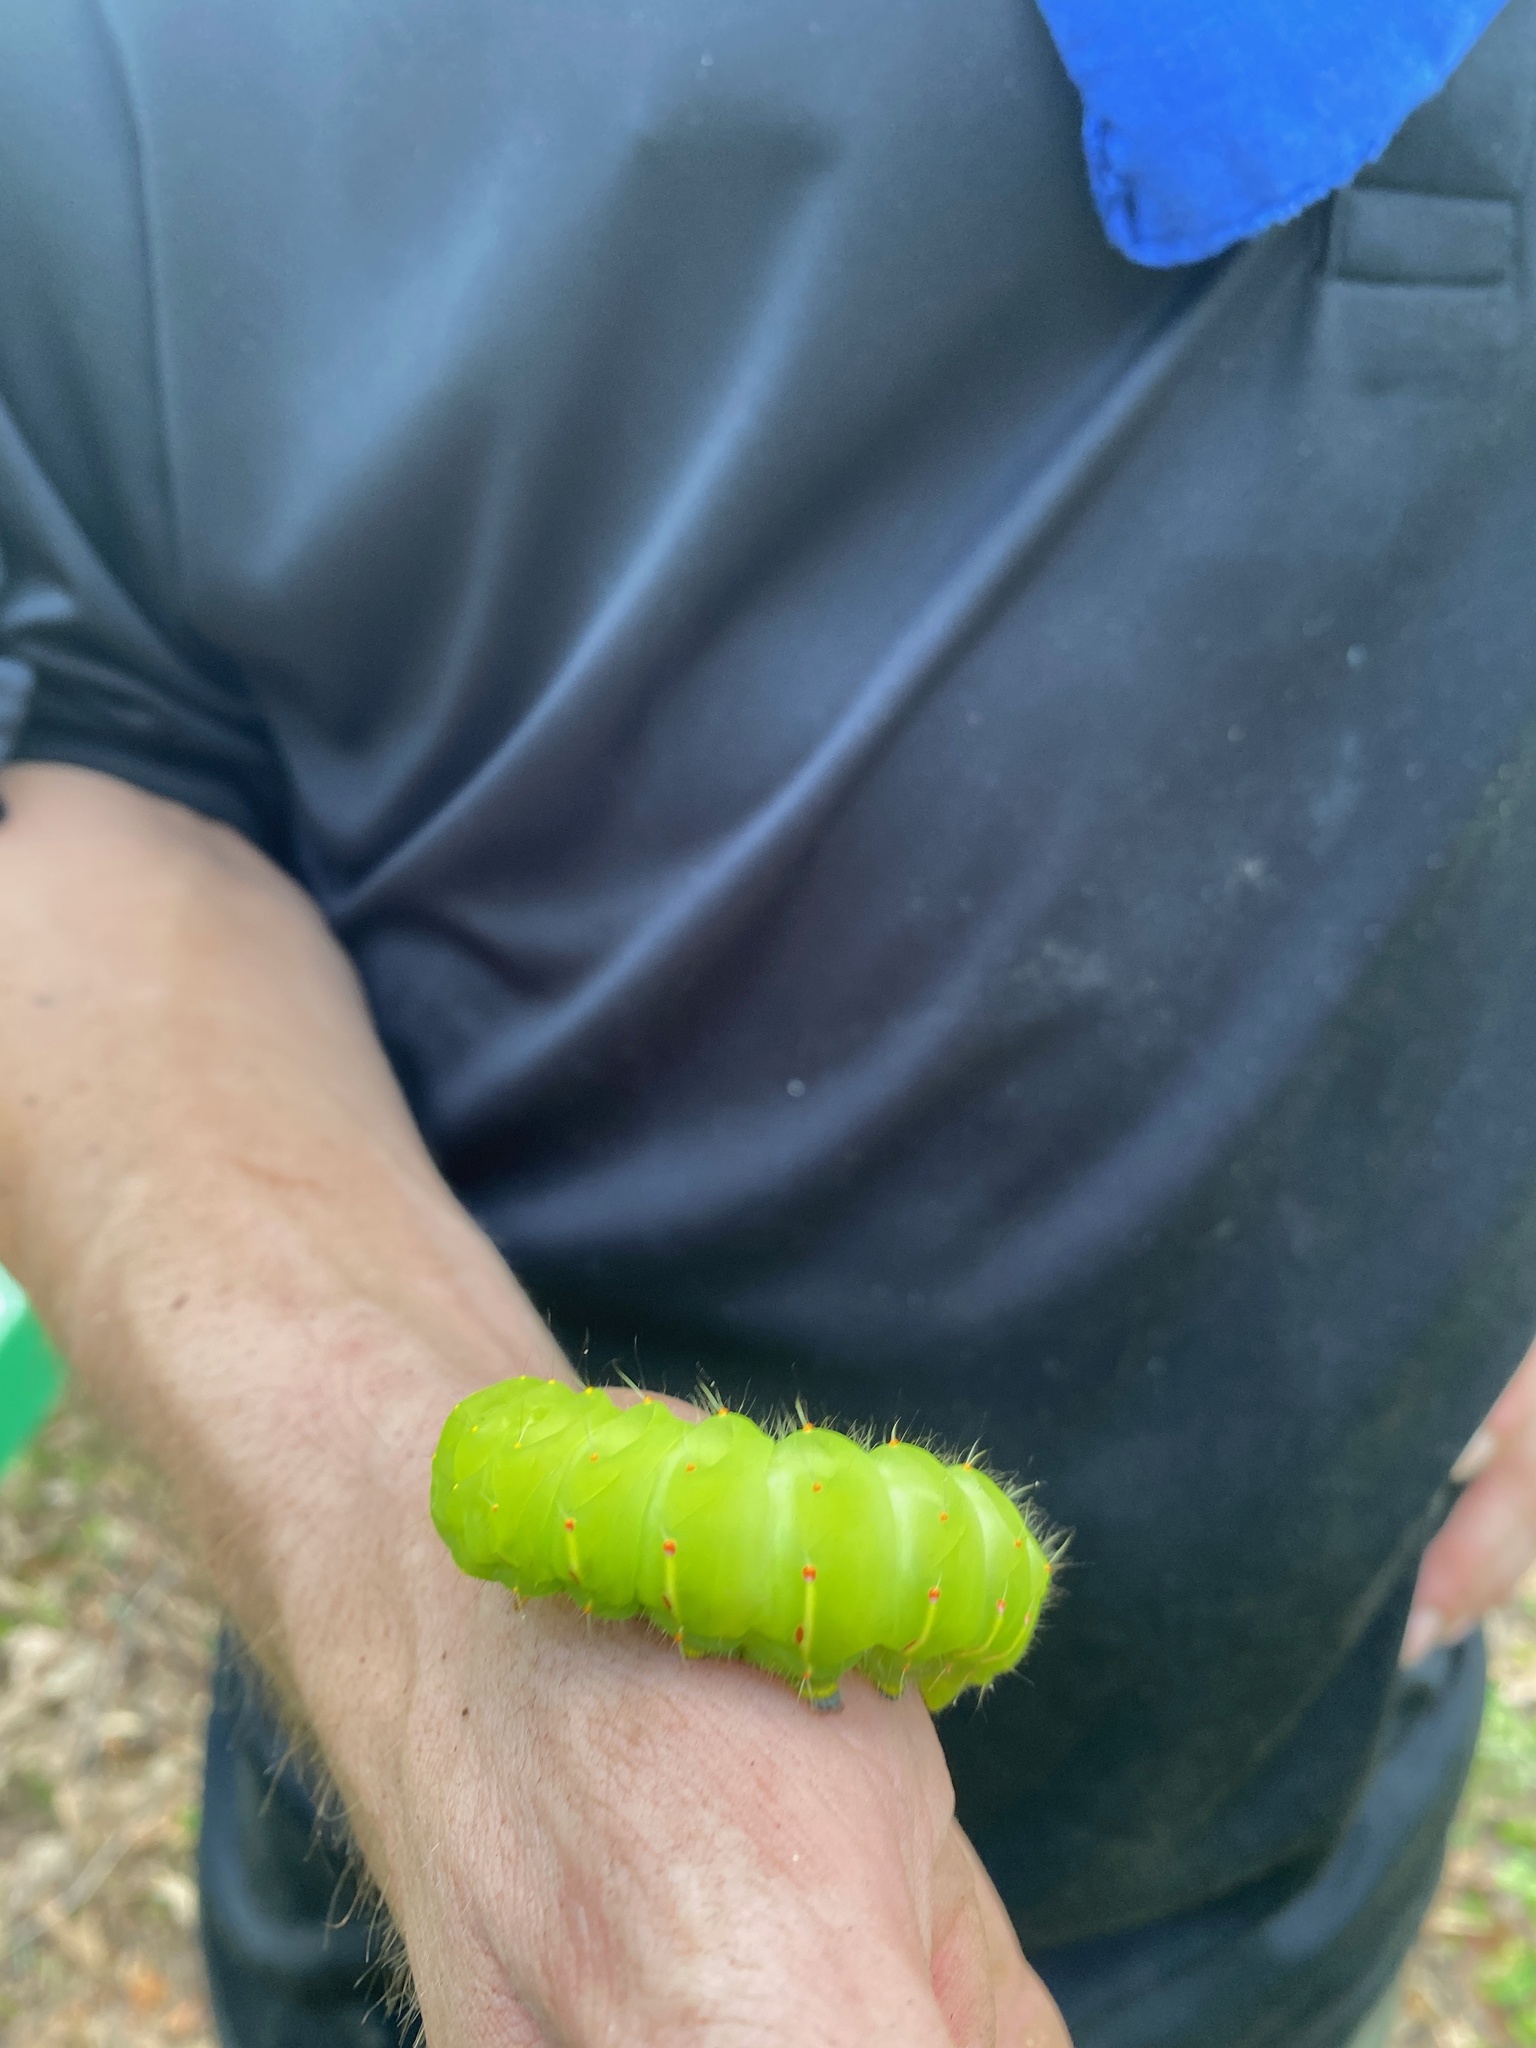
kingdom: Animalia
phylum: Arthropoda
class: Insecta
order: Lepidoptera
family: Saturniidae
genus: Antheraea
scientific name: Antheraea polyphemus
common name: Polyphemus moth
